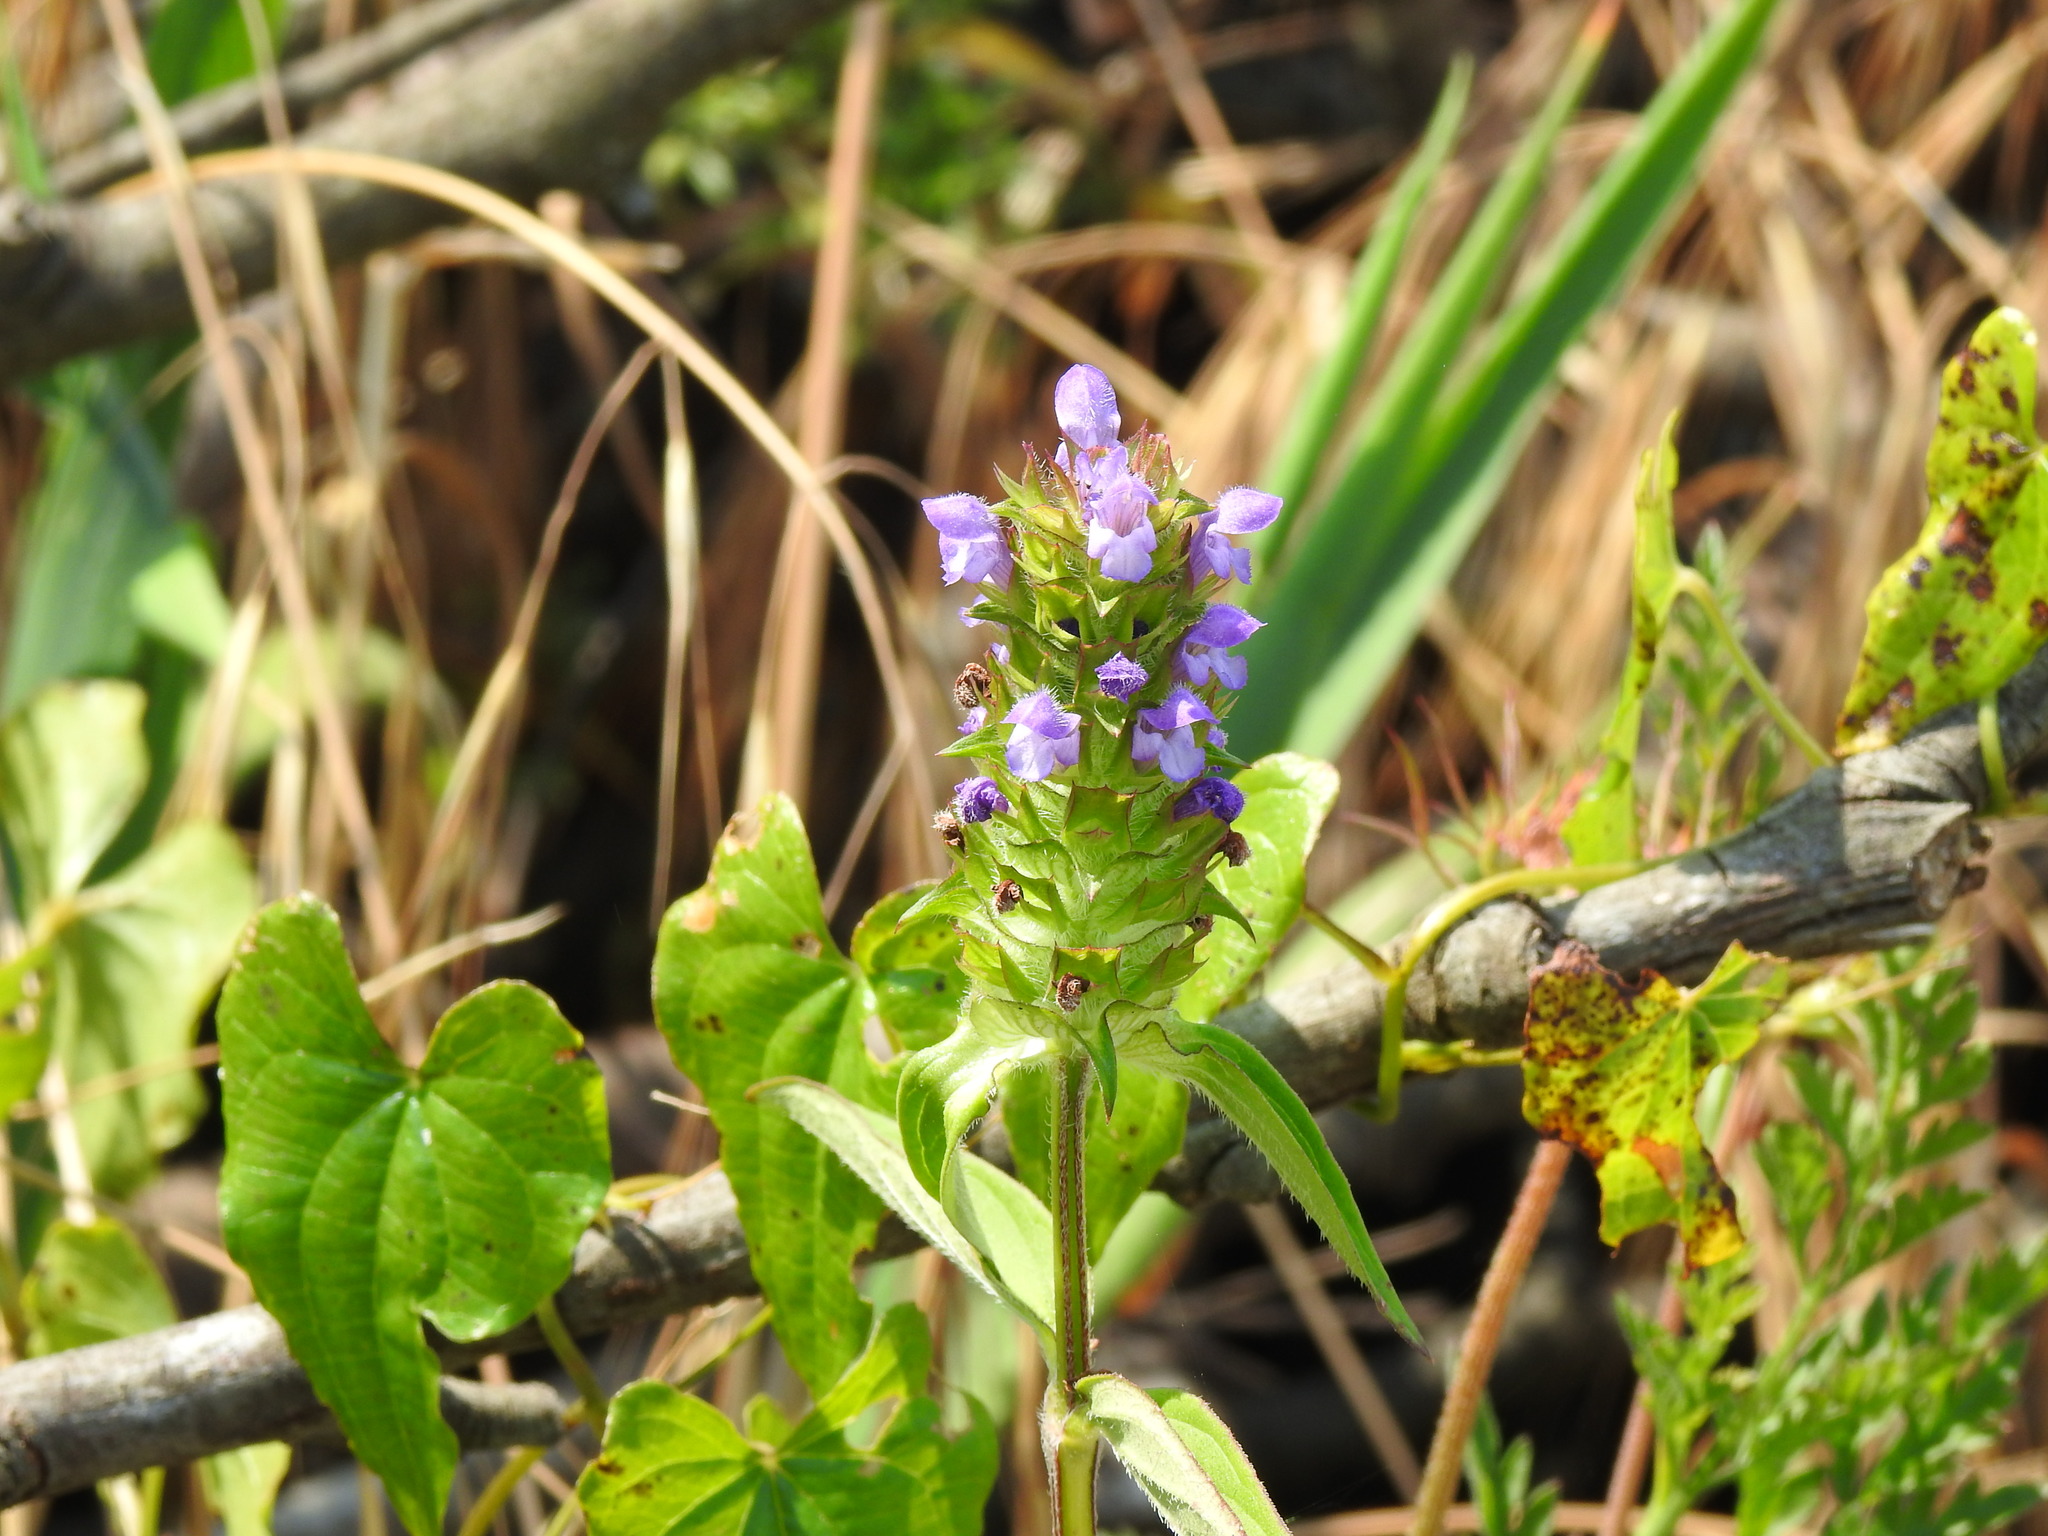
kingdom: Plantae
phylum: Tracheophyta
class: Magnoliopsida
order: Lamiales
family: Lamiaceae
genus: Prunella
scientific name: Prunella vulgaris
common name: Heal-all
